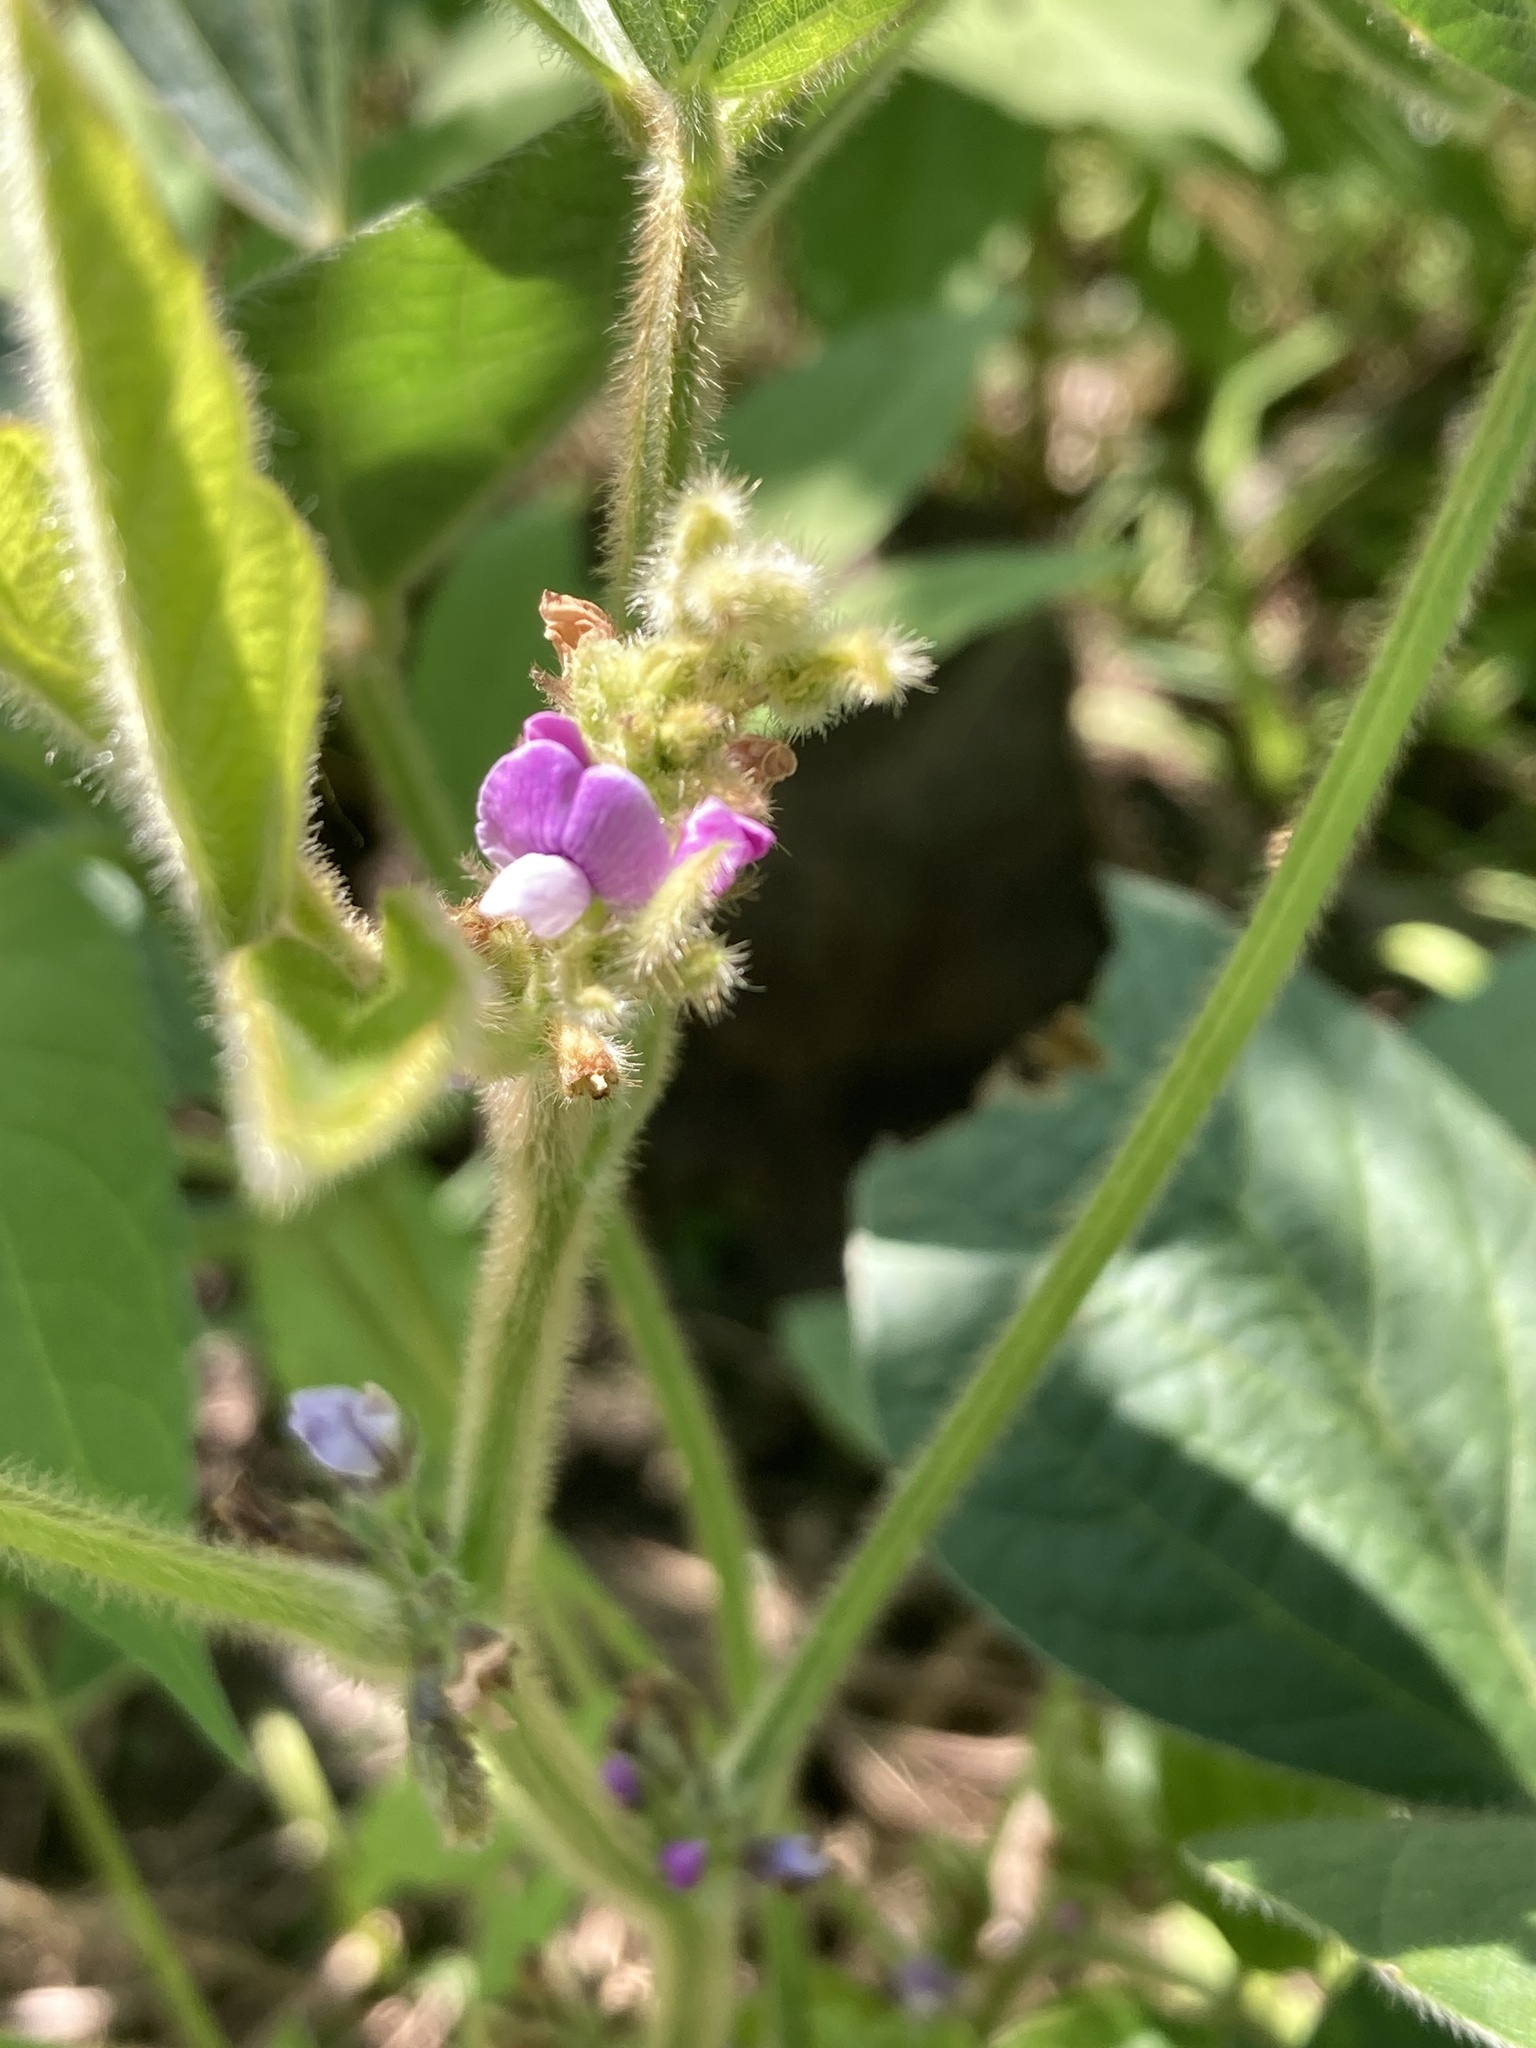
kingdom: Plantae
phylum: Tracheophyta
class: Magnoliopsida
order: Fabales
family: Fabaceae
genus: Glycine
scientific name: Glycine max
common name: Soya-bean
